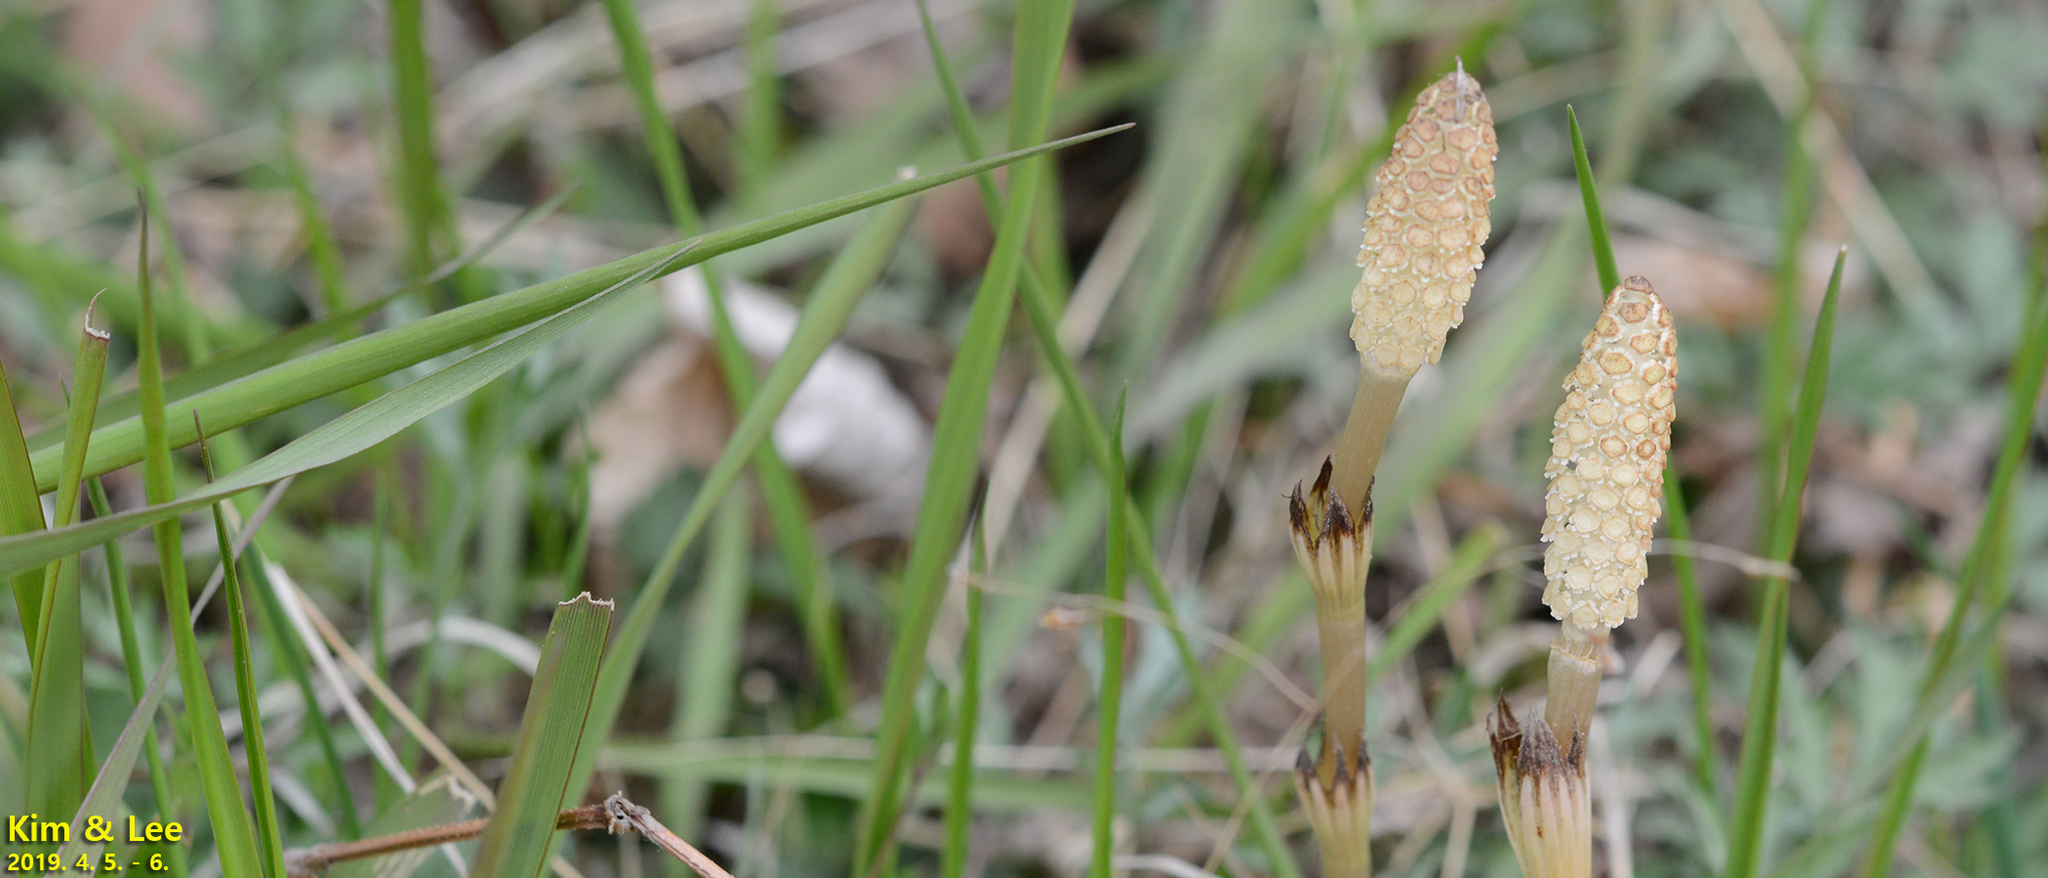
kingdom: Plantae
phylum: Tracheophyta
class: Polypodiopsida
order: Equisetales
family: Equisetaceae
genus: Equisetum
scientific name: Equisetum arvense
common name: Field horsetail
